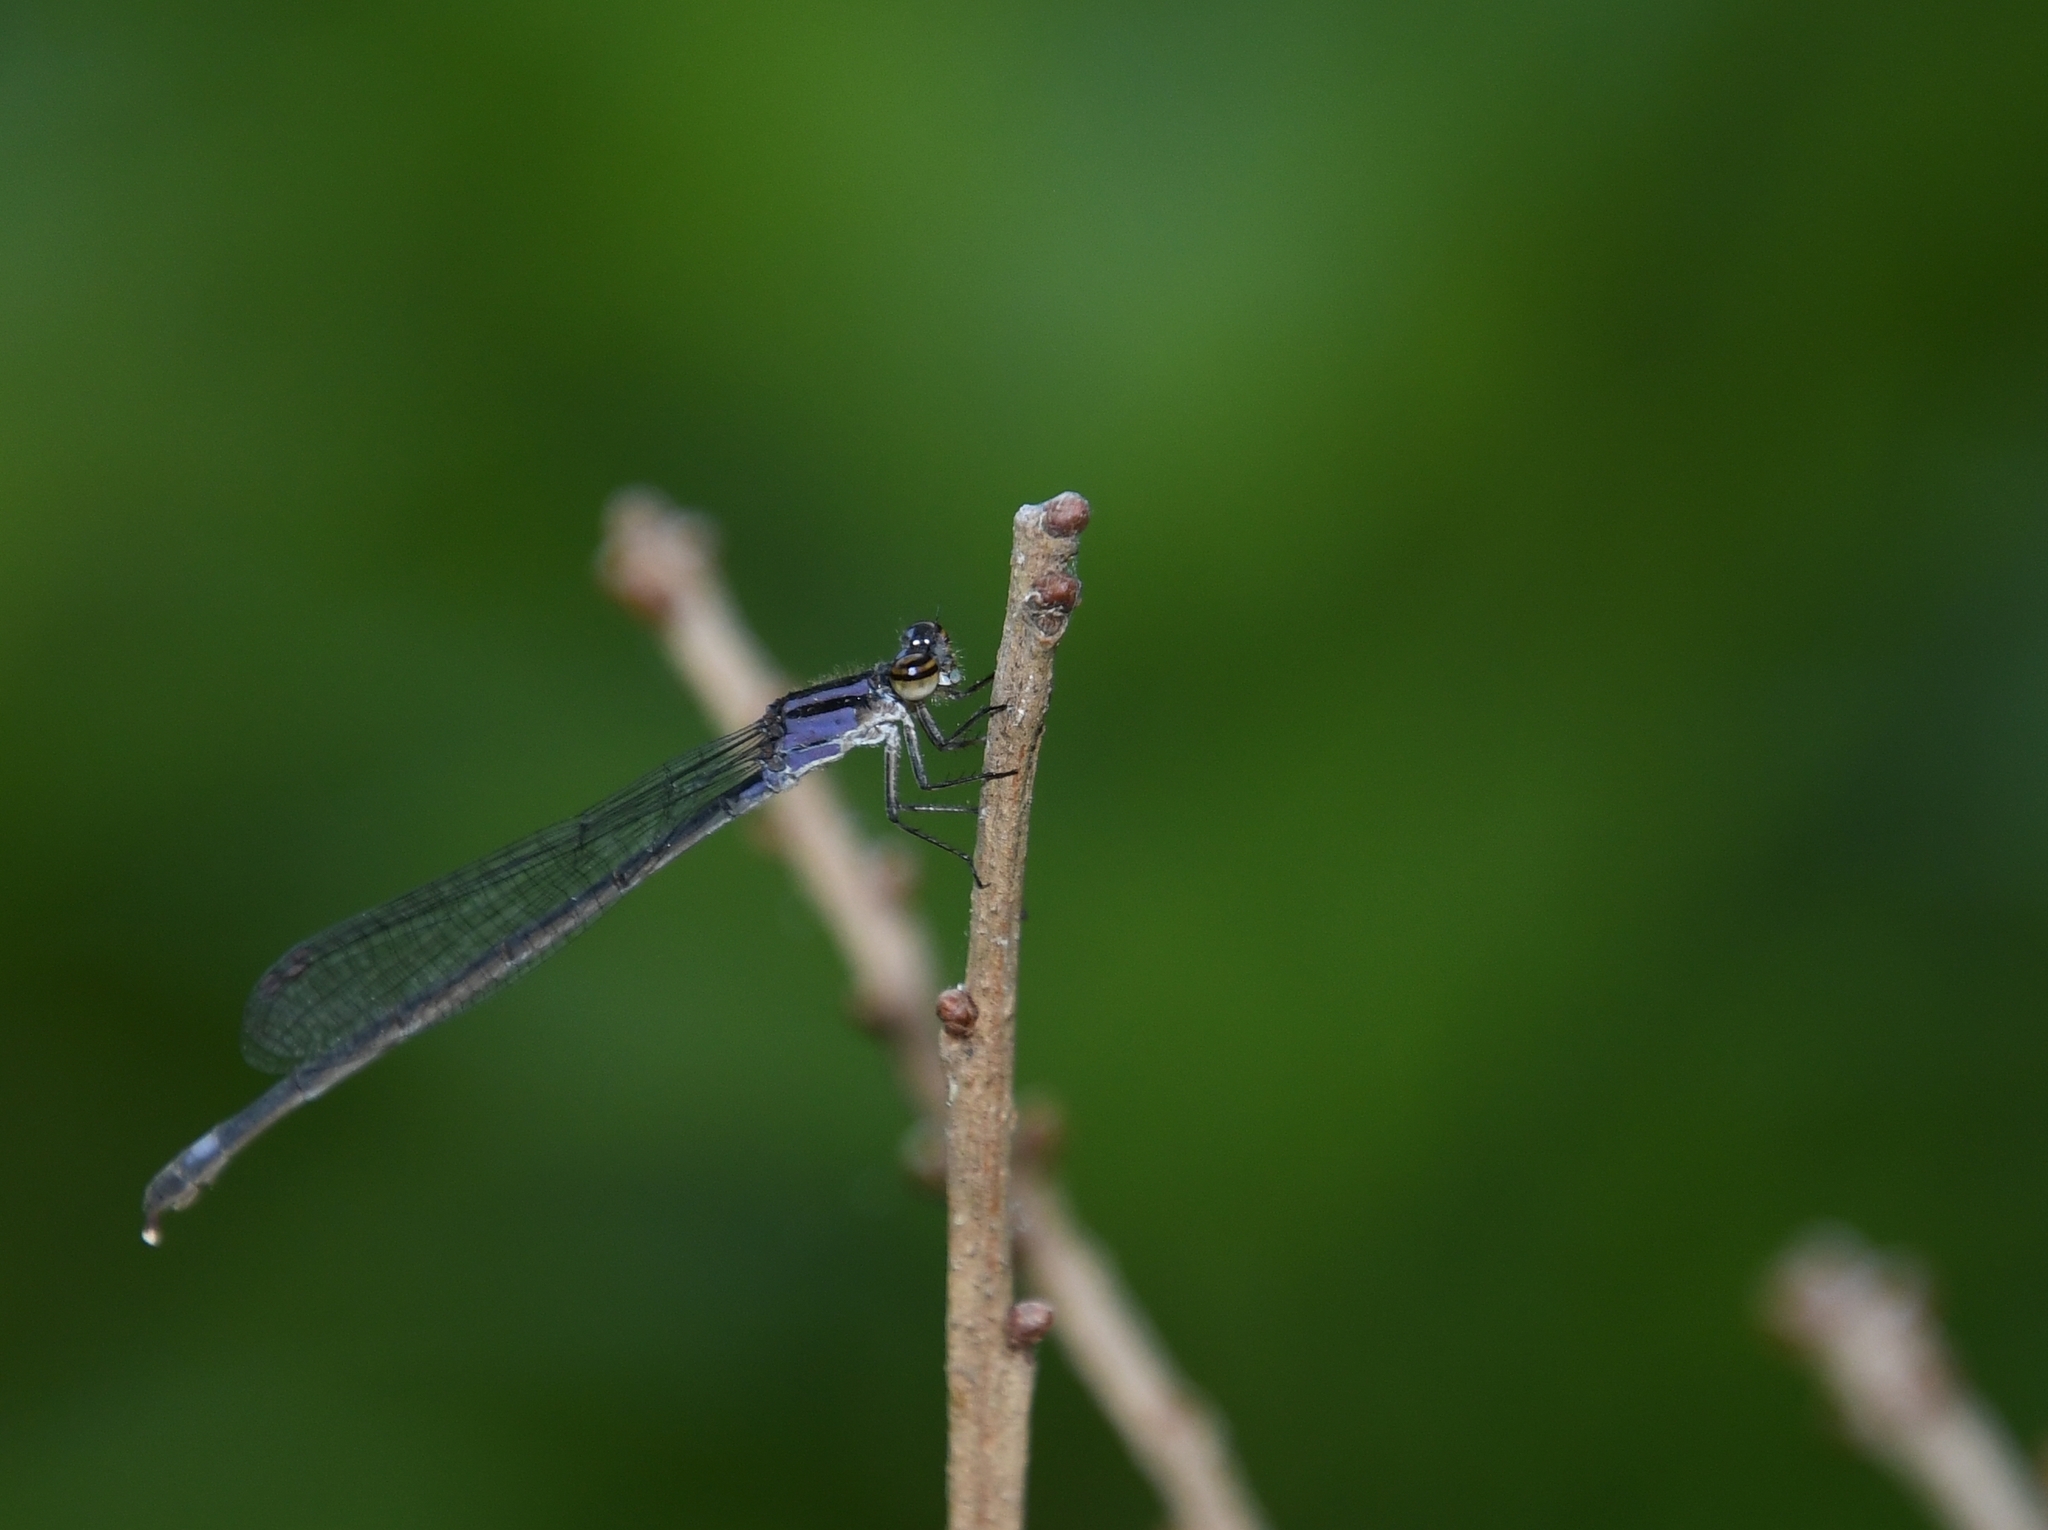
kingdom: Animalia
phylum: Arthropoda
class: Insecta
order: Odonata
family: Coenagrionidae
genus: Enallagma
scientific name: Enallagma cardenium
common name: Purple bluet
